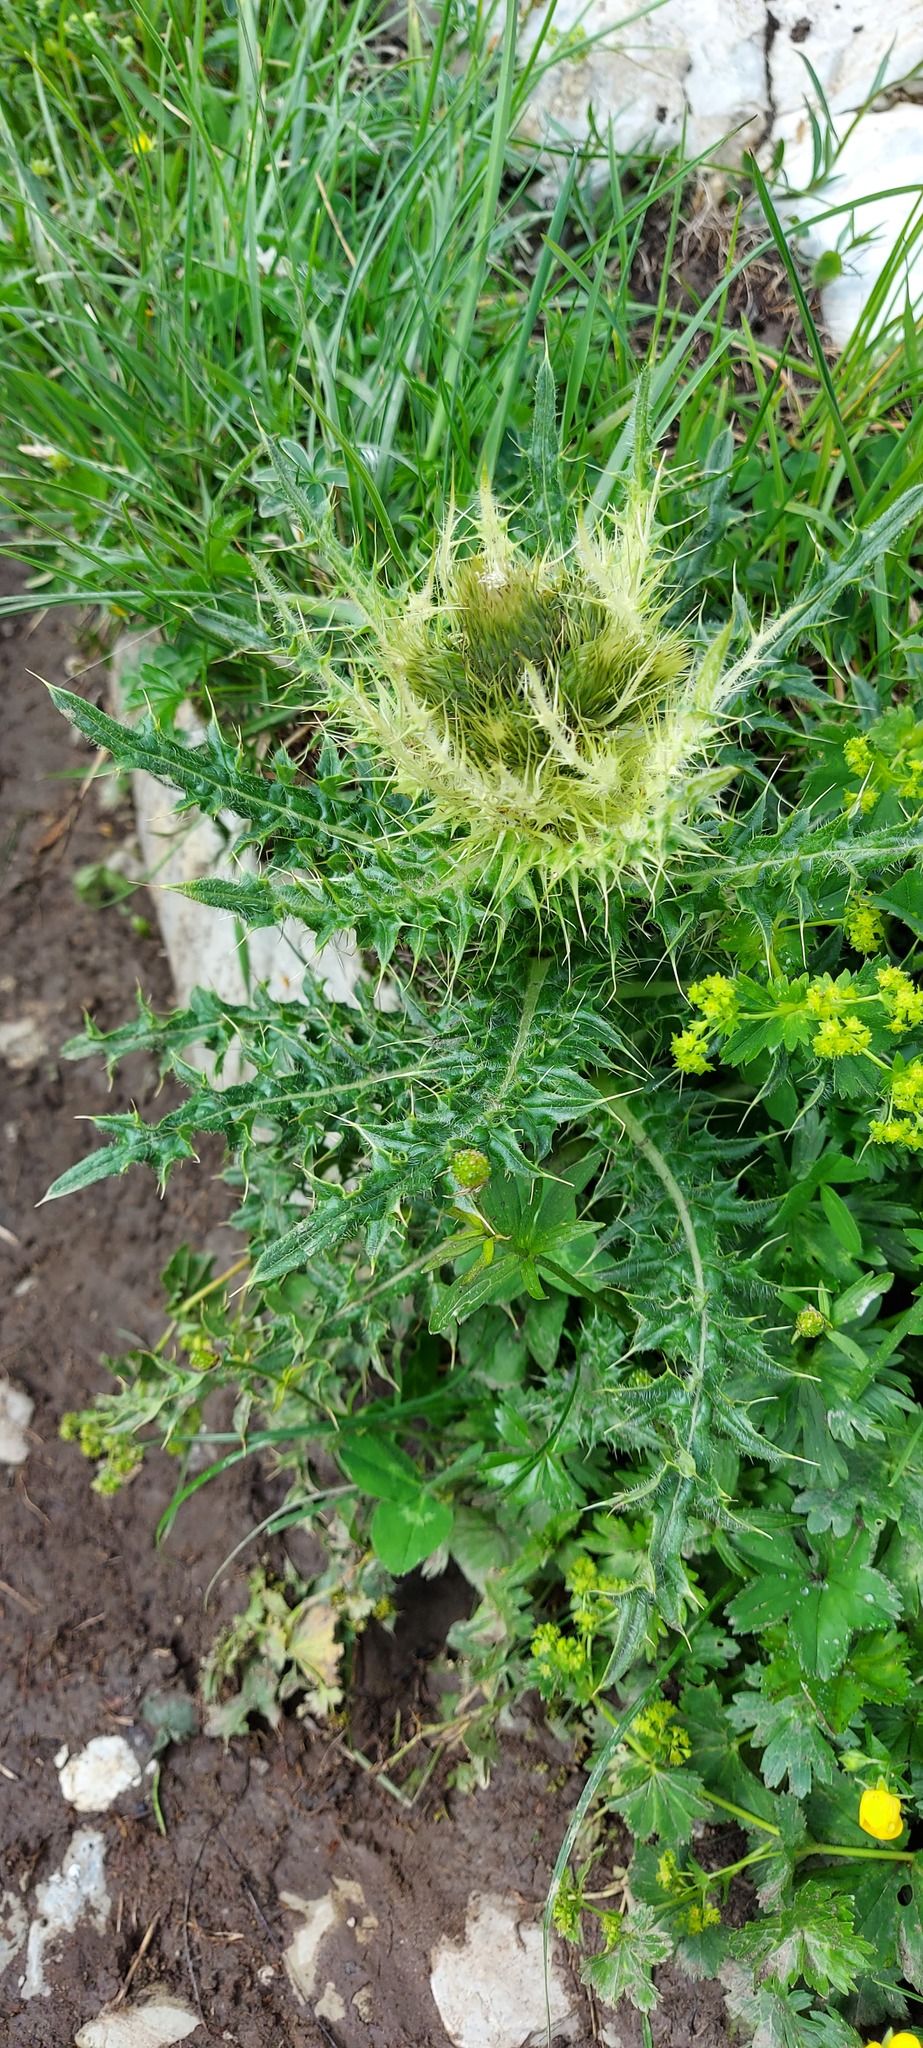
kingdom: Plantae
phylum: Tracheophyta
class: Magnoliopsida
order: Asterales
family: Asteraceae
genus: Cirsium
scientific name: Cirsium spinosissimum
